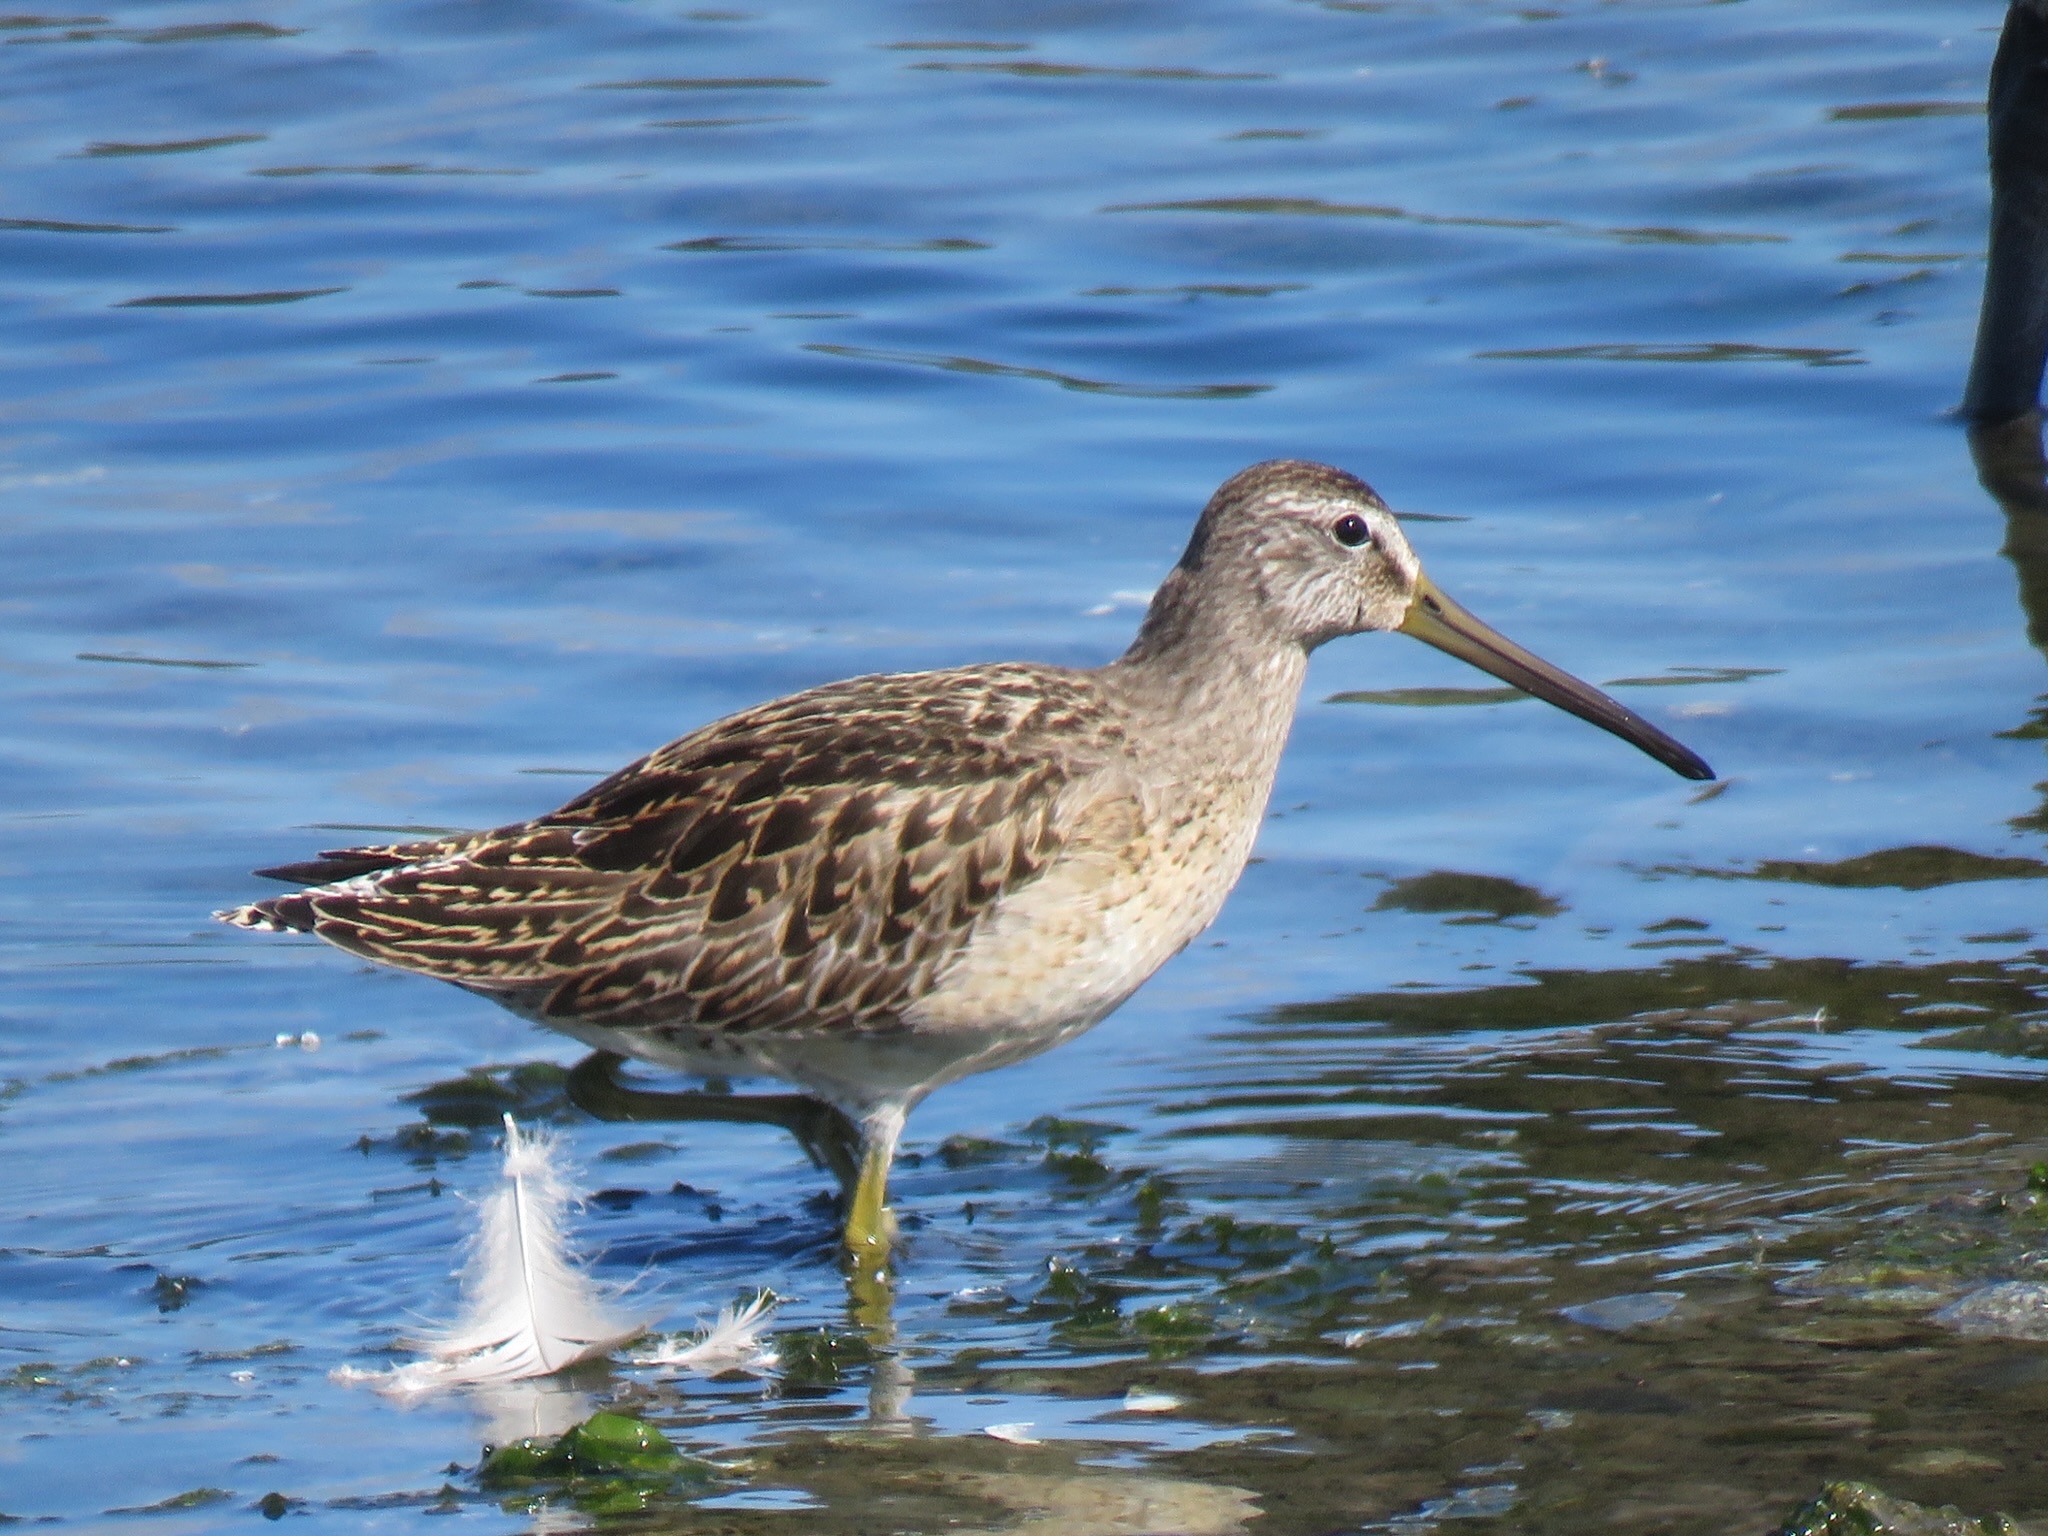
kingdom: Animalia
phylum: Chordata
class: Aves
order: Charadriiformes
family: Scolopacidae
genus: Limnodromus
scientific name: Limnodromus griseus
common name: Short-billed dowitcher
